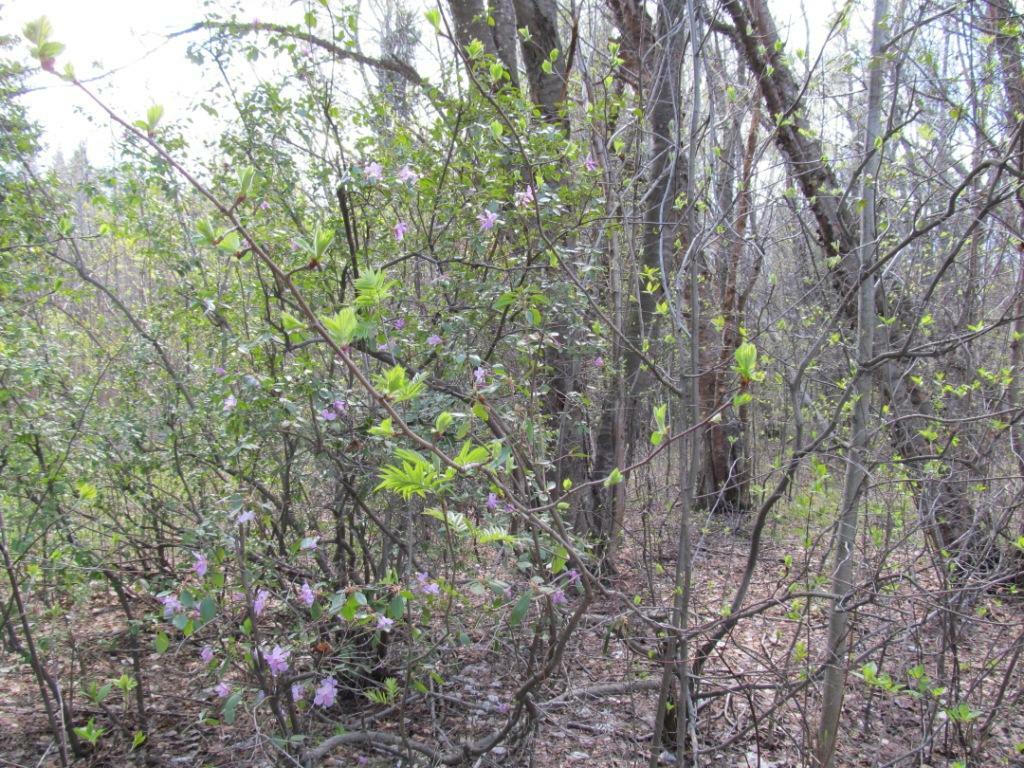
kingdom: Plantae
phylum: Tracheophyta
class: Magnoliopsida
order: Ericales
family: Ericaceae
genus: Rhododendron
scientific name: Rhododendron dauricum
